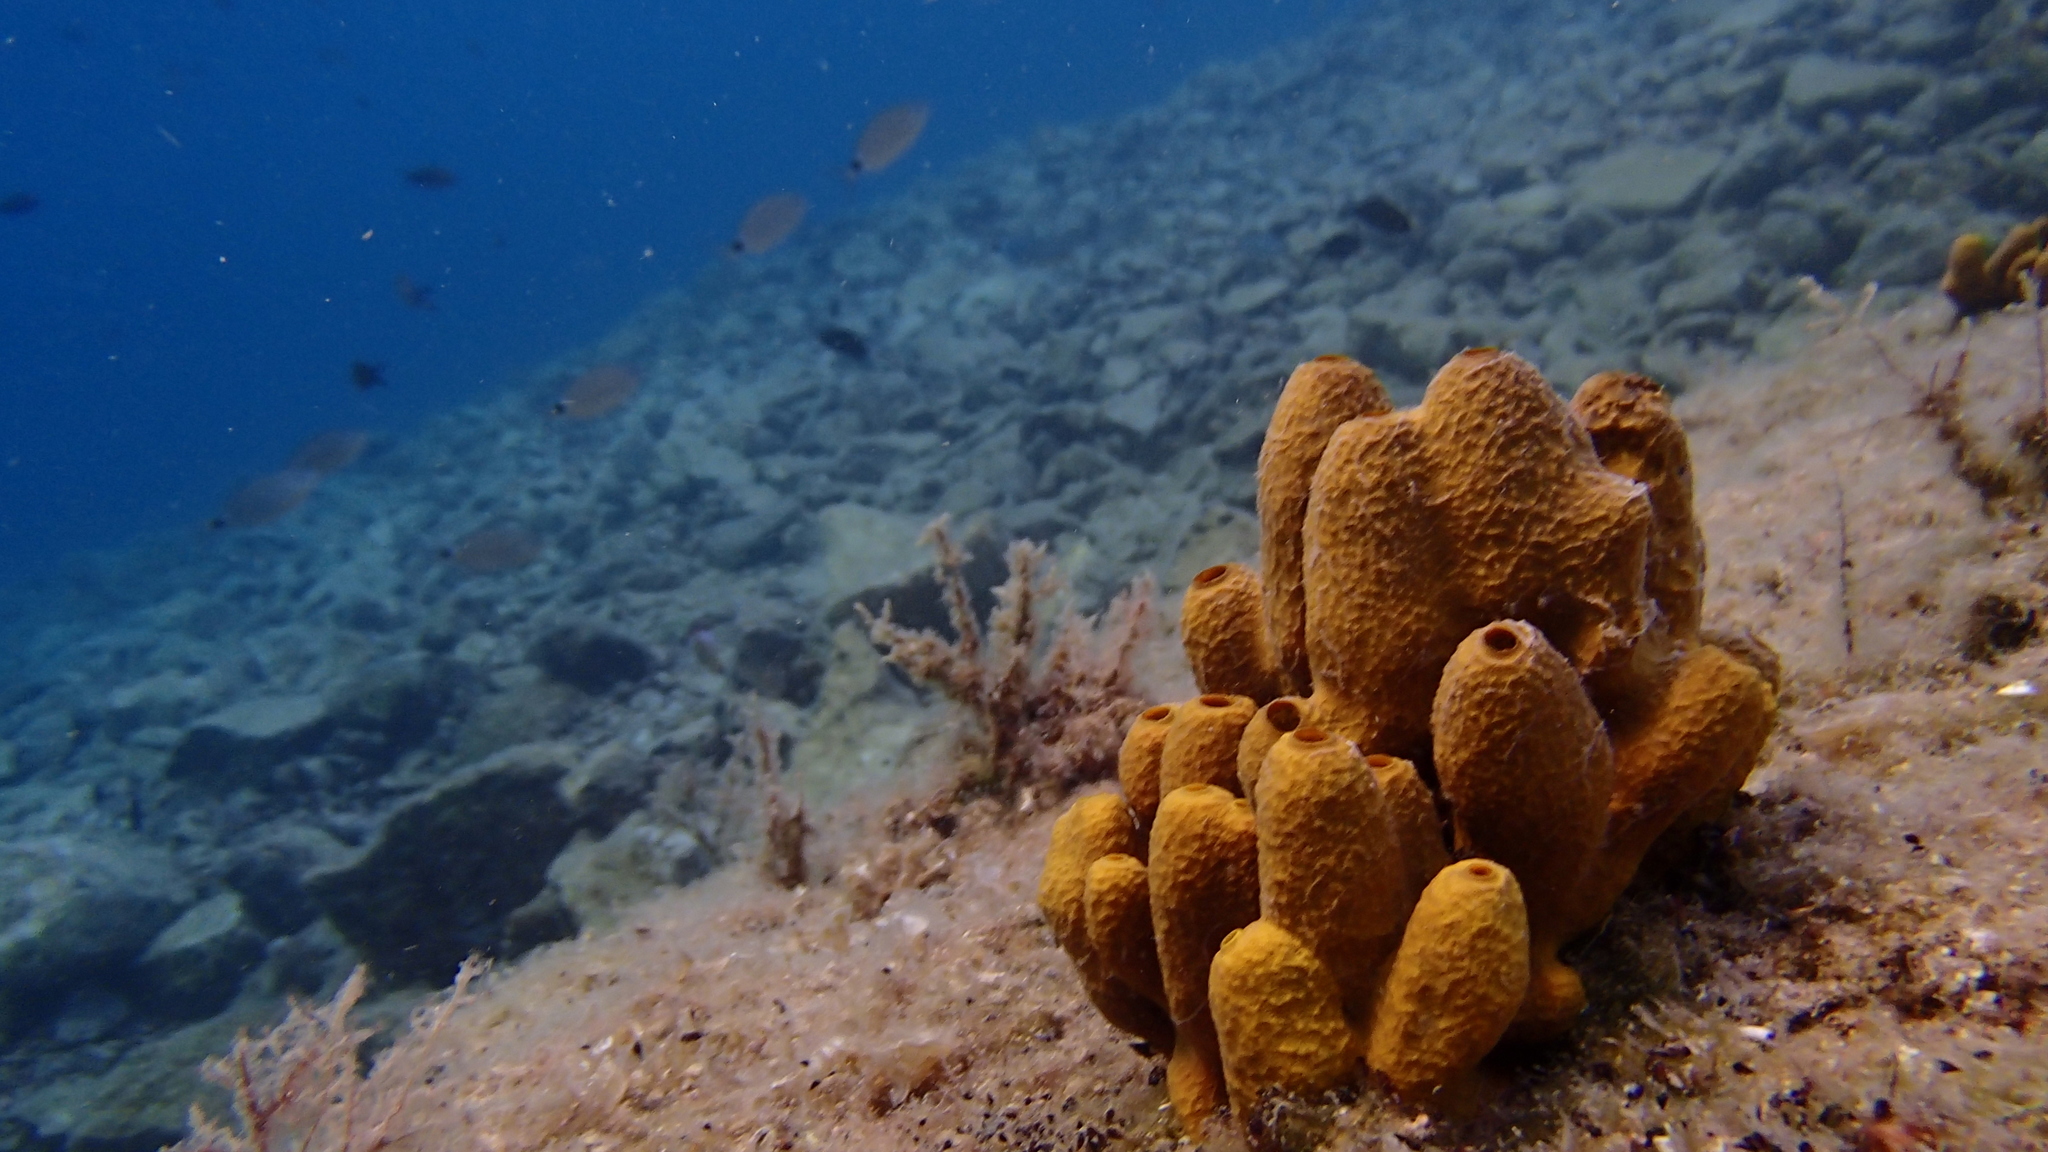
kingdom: Animalia
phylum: Porifera
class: Demospongiae
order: Verongiida
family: Aplysinidae
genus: Aplysina
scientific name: Aplysina aerophoba
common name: Aureate sponge
